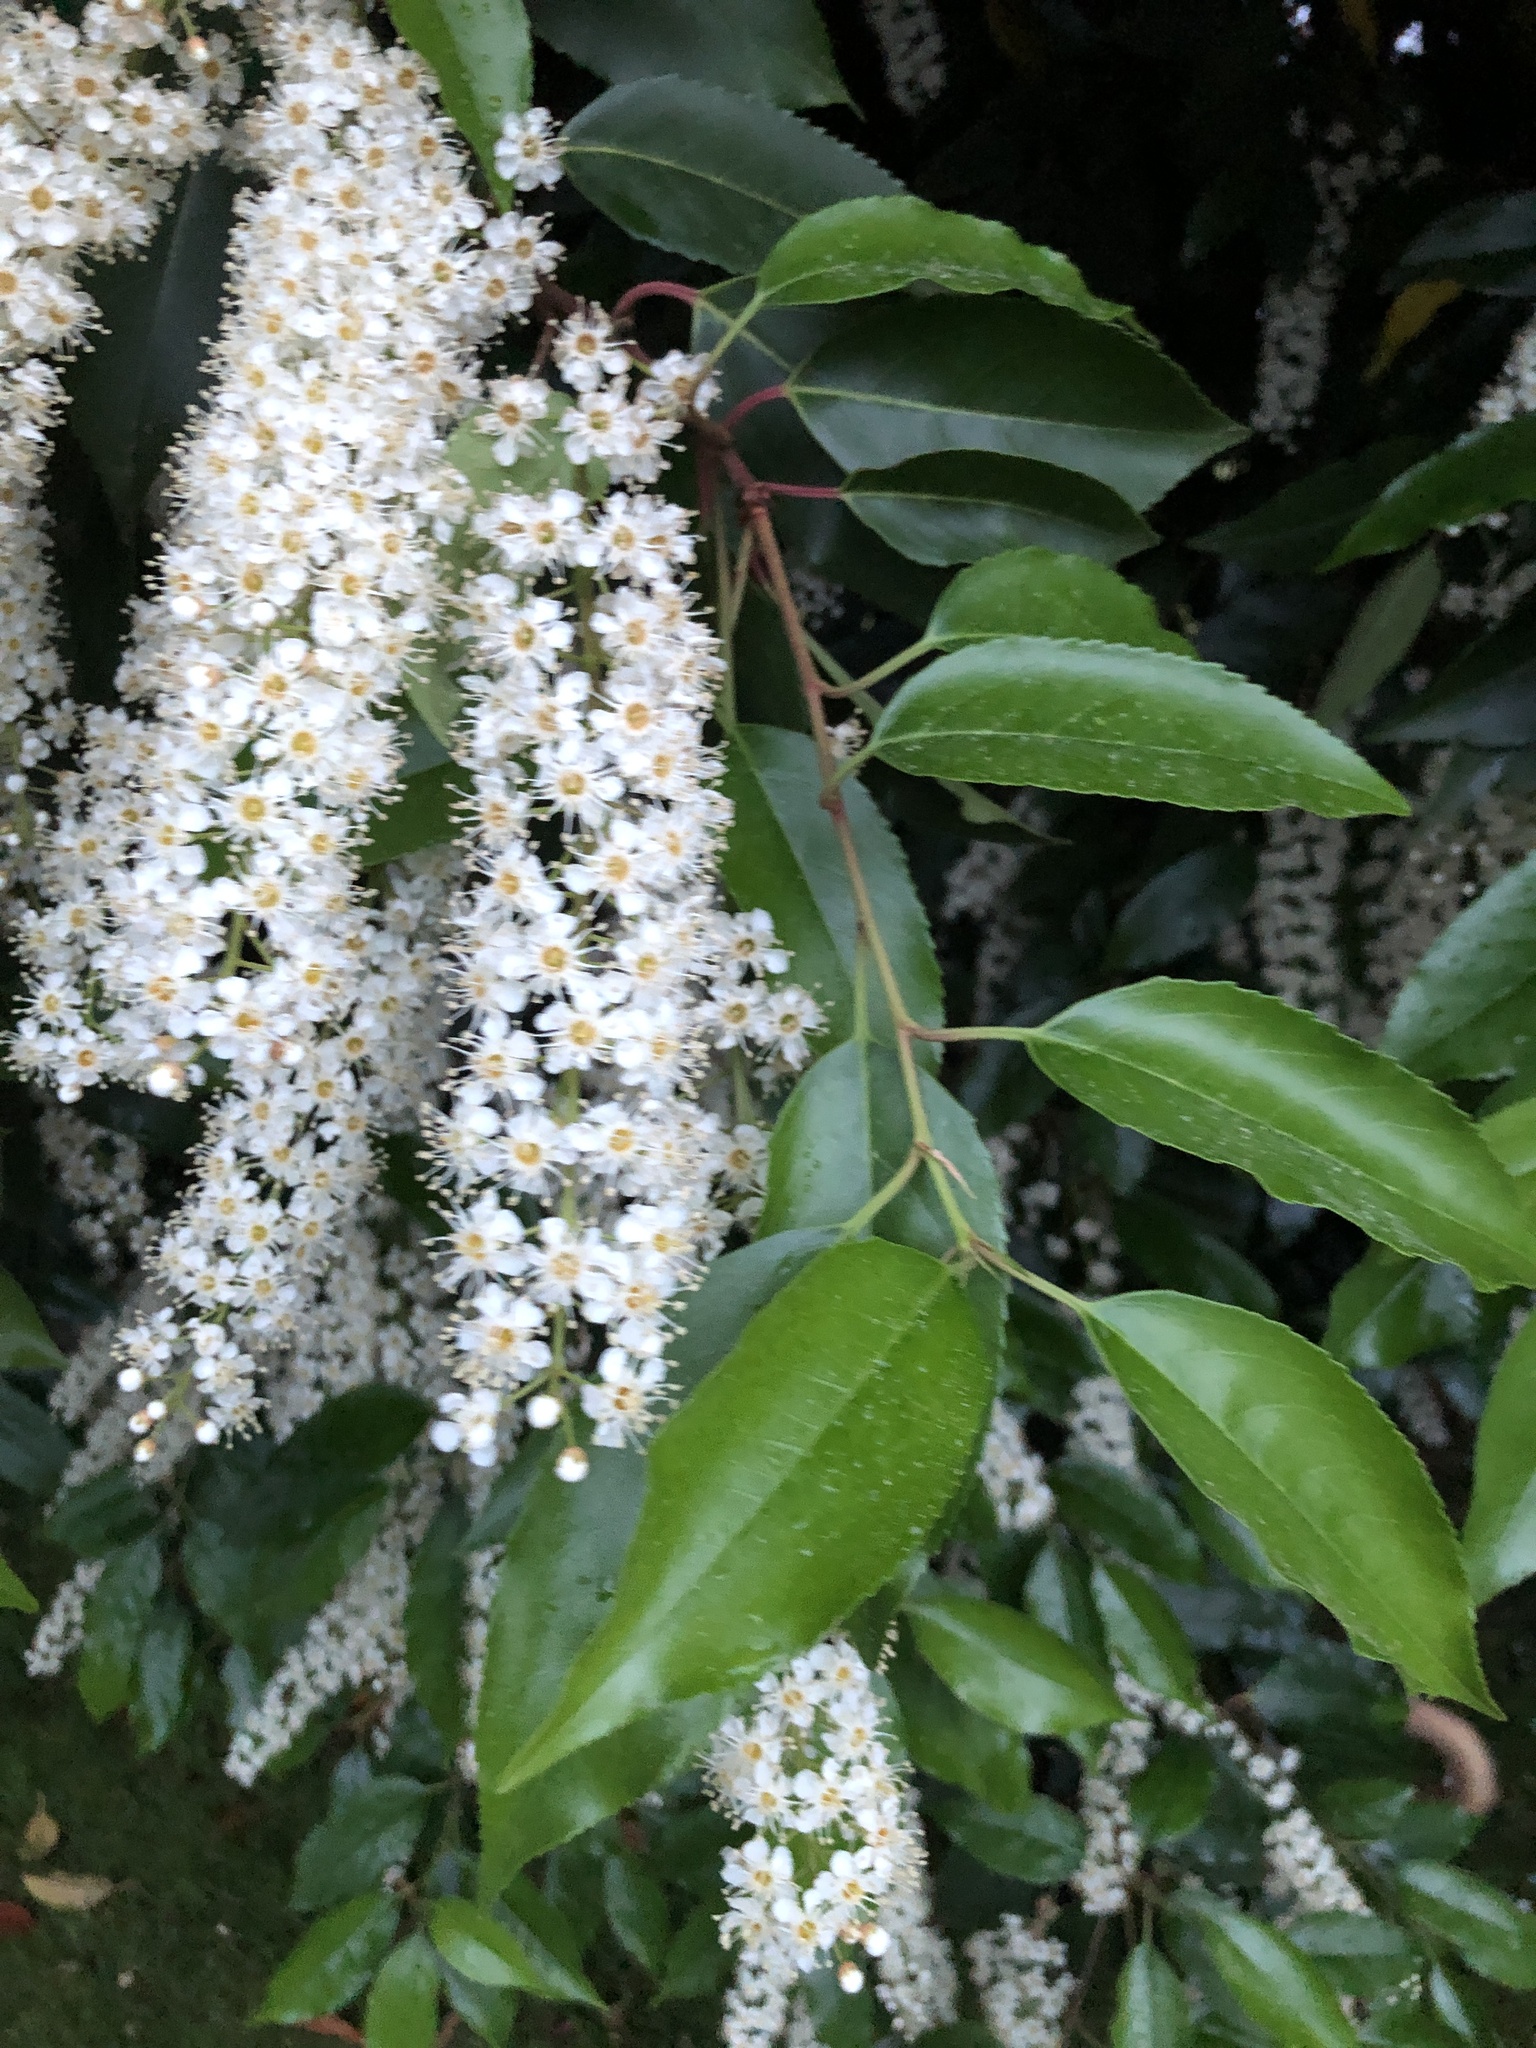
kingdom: Plantae
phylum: Tracheophyta
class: Magnoliopsida
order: Rosales
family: Rosaceae
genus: Prunus
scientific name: Prunus lusitanica
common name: Portugal laurel
